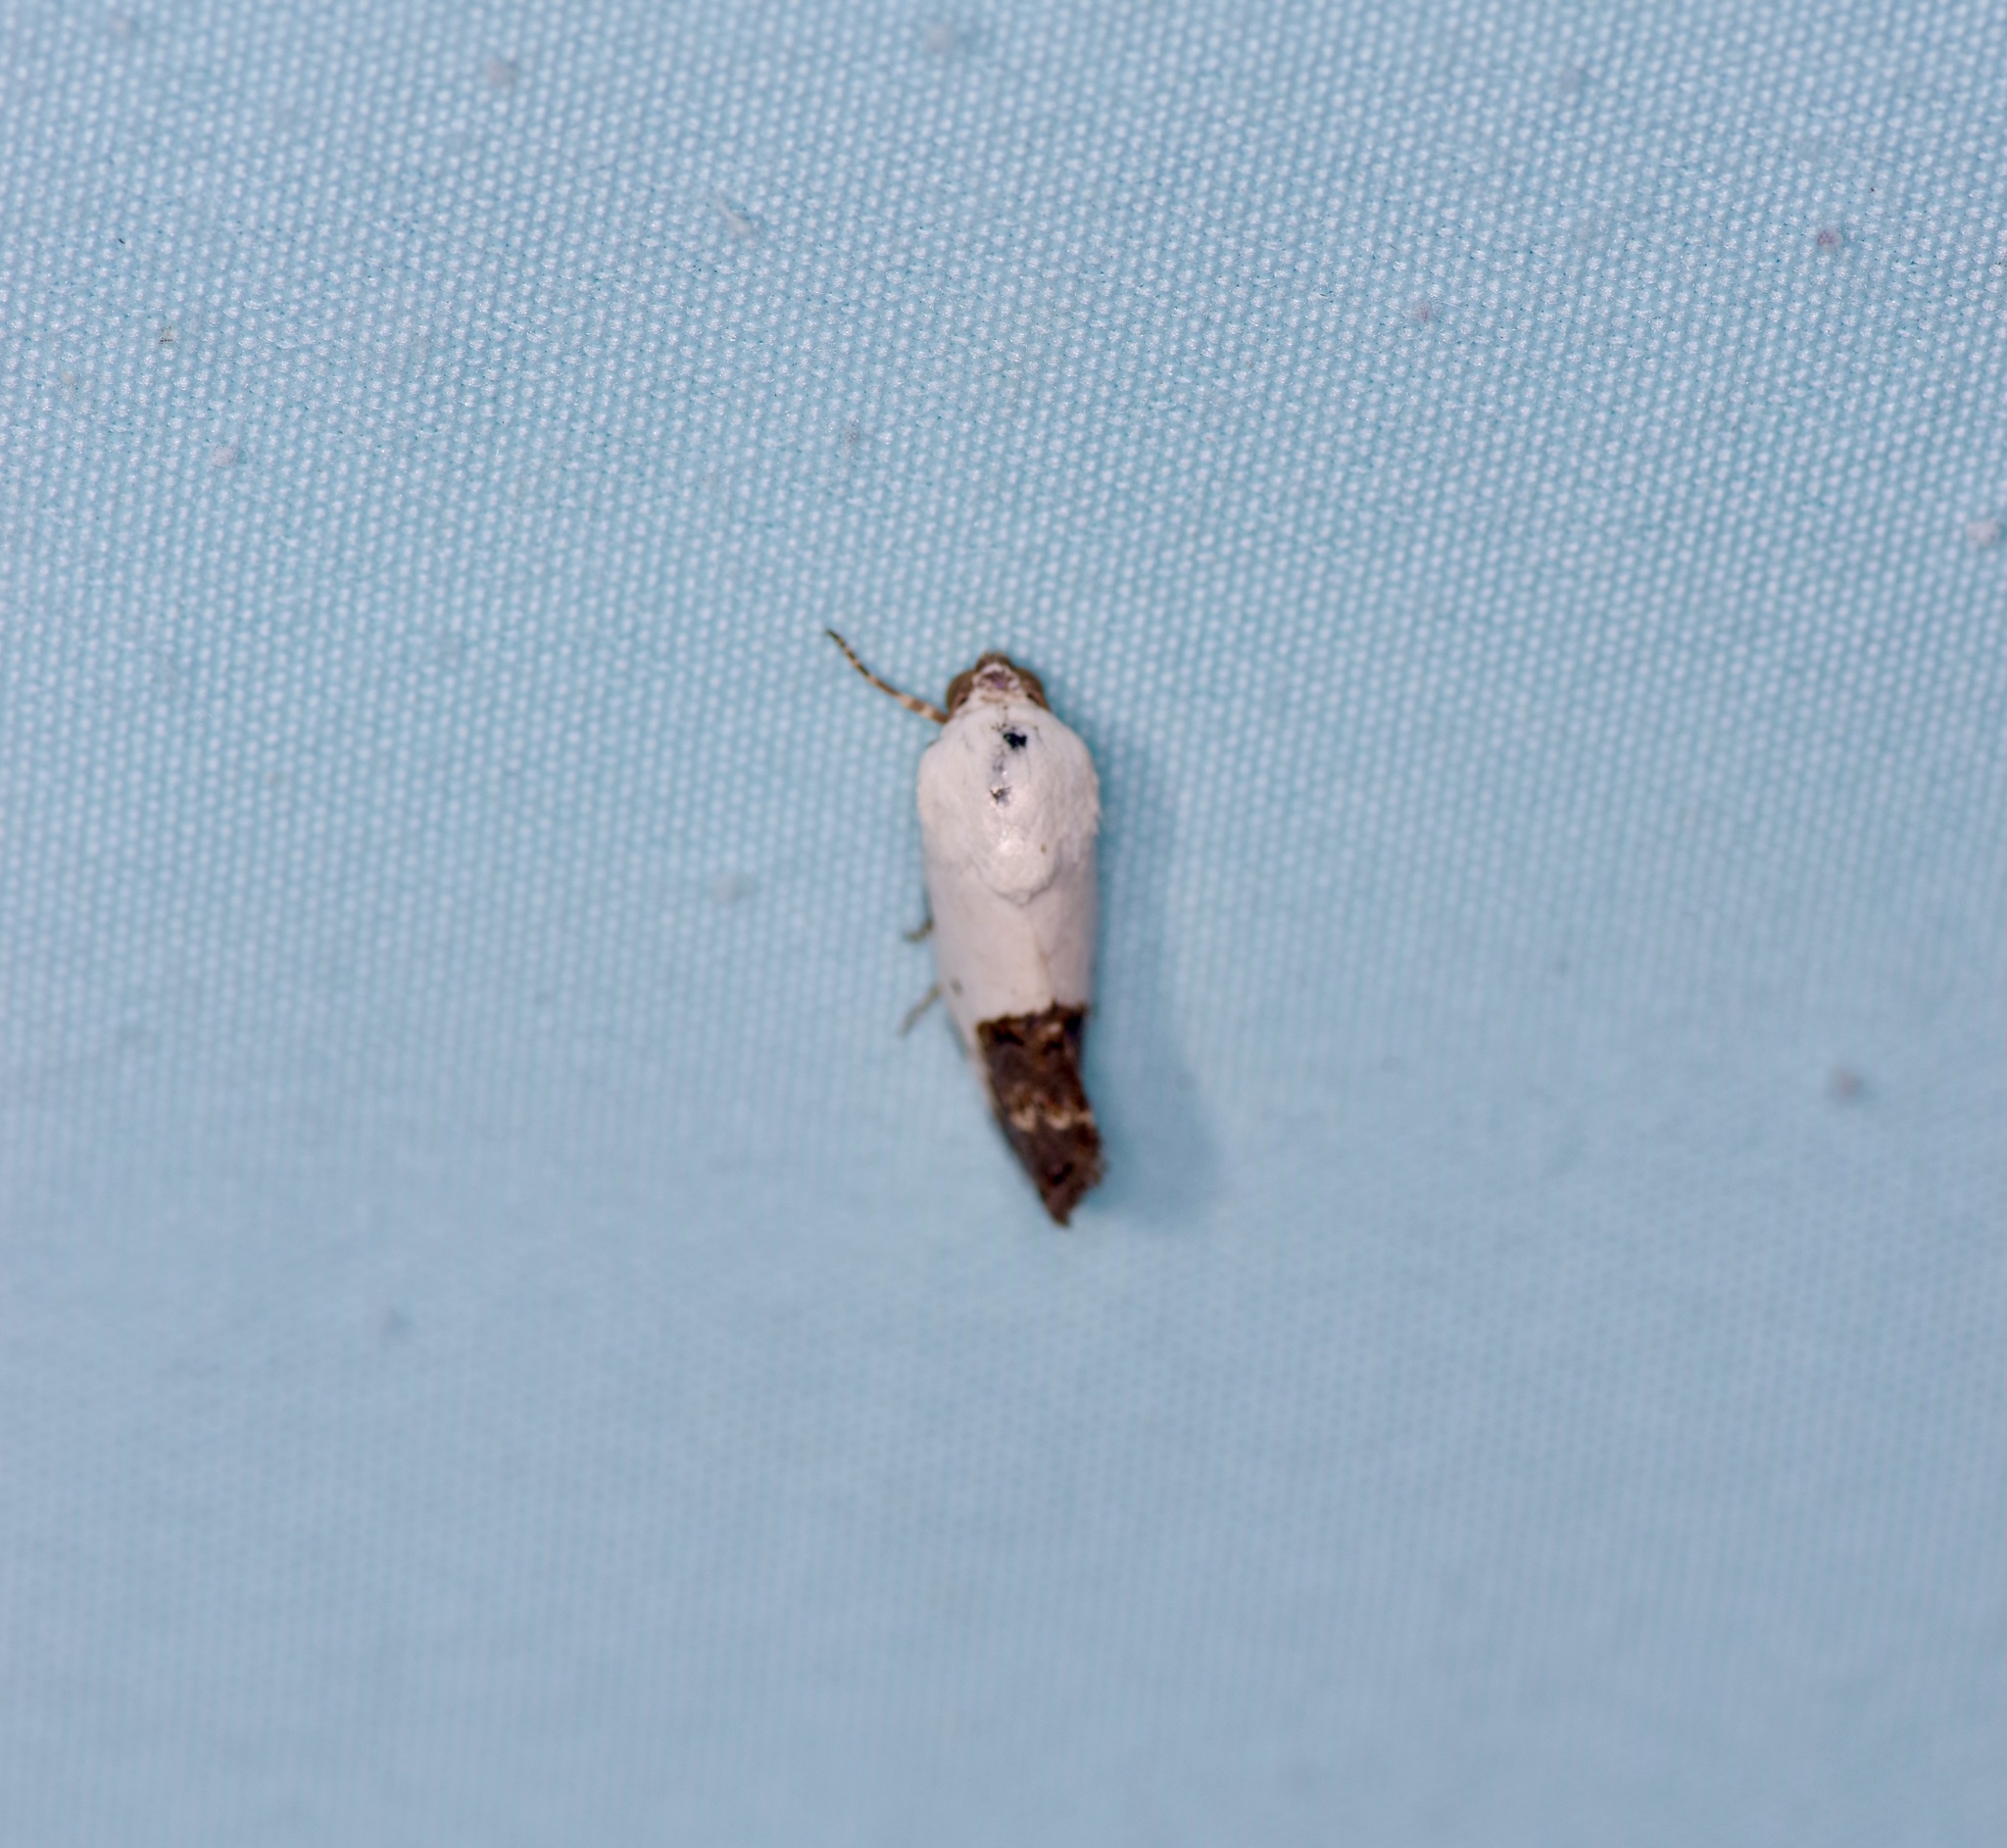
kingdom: Animalia
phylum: Arthropoda
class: Insecta
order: Lepidoptera
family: Noctuidae
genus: Acontia
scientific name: Acontia erastrioides
